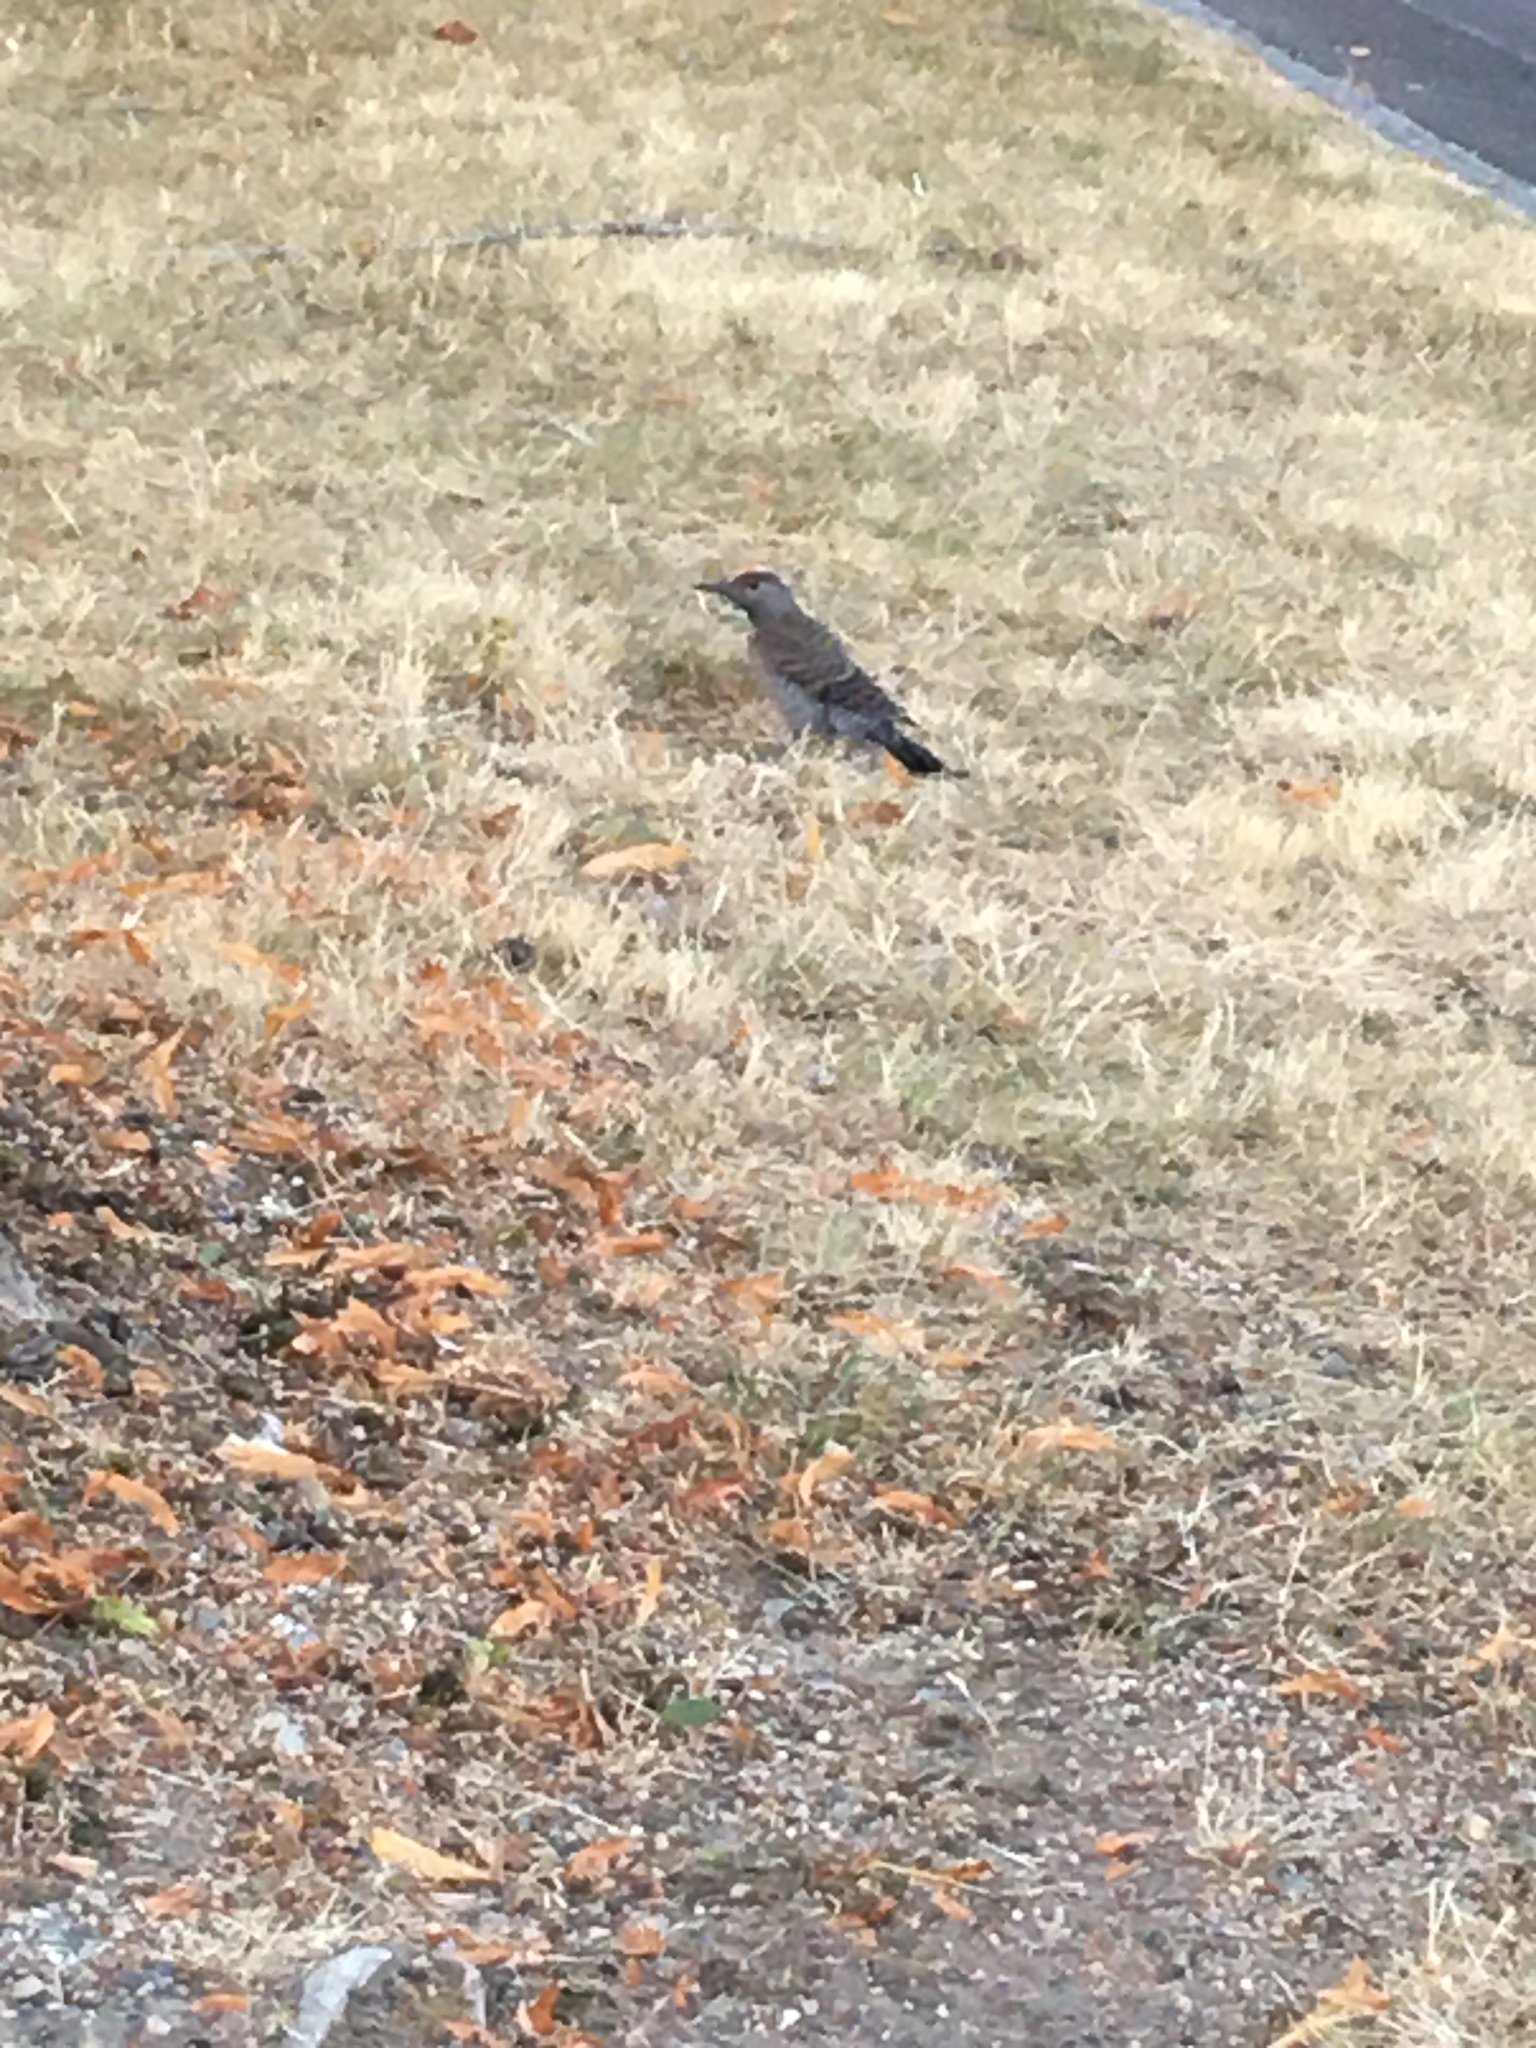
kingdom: Animalia
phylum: Chordata
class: Aves
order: Piciformes
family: Picidae
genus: Colaptes
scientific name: Colaptes auratus
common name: Northern flicker
